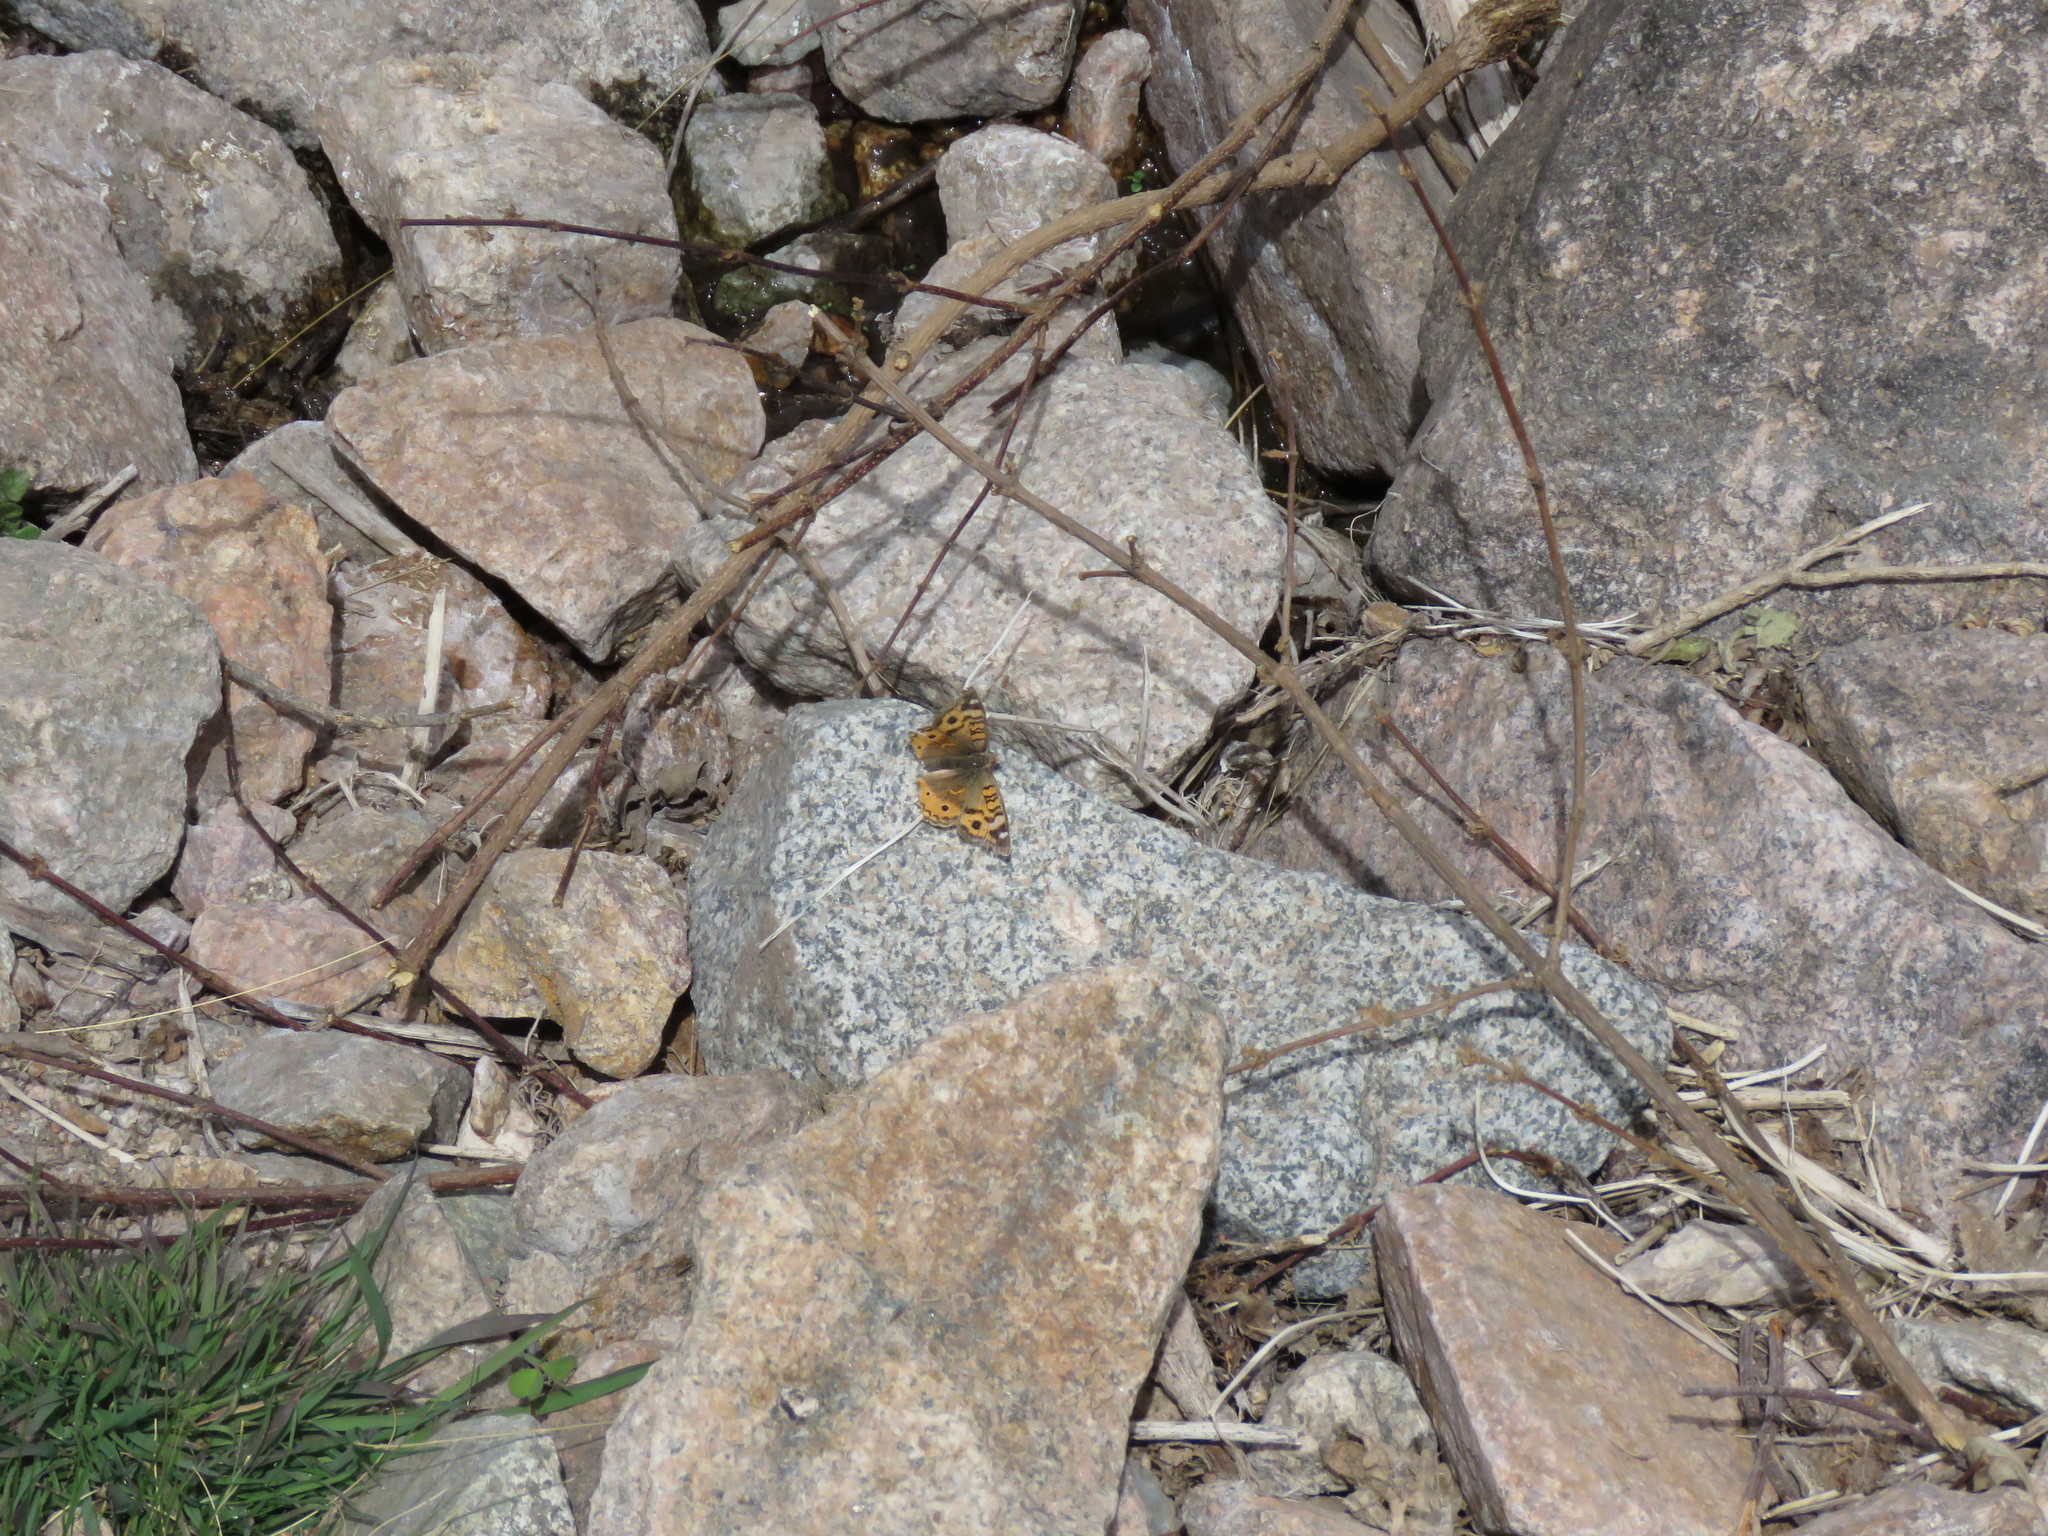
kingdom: Animalia
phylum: Arthropoda
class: Insecta
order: Lepidoptera
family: Nymphalidae
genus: Junonia
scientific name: Junonia vestina
